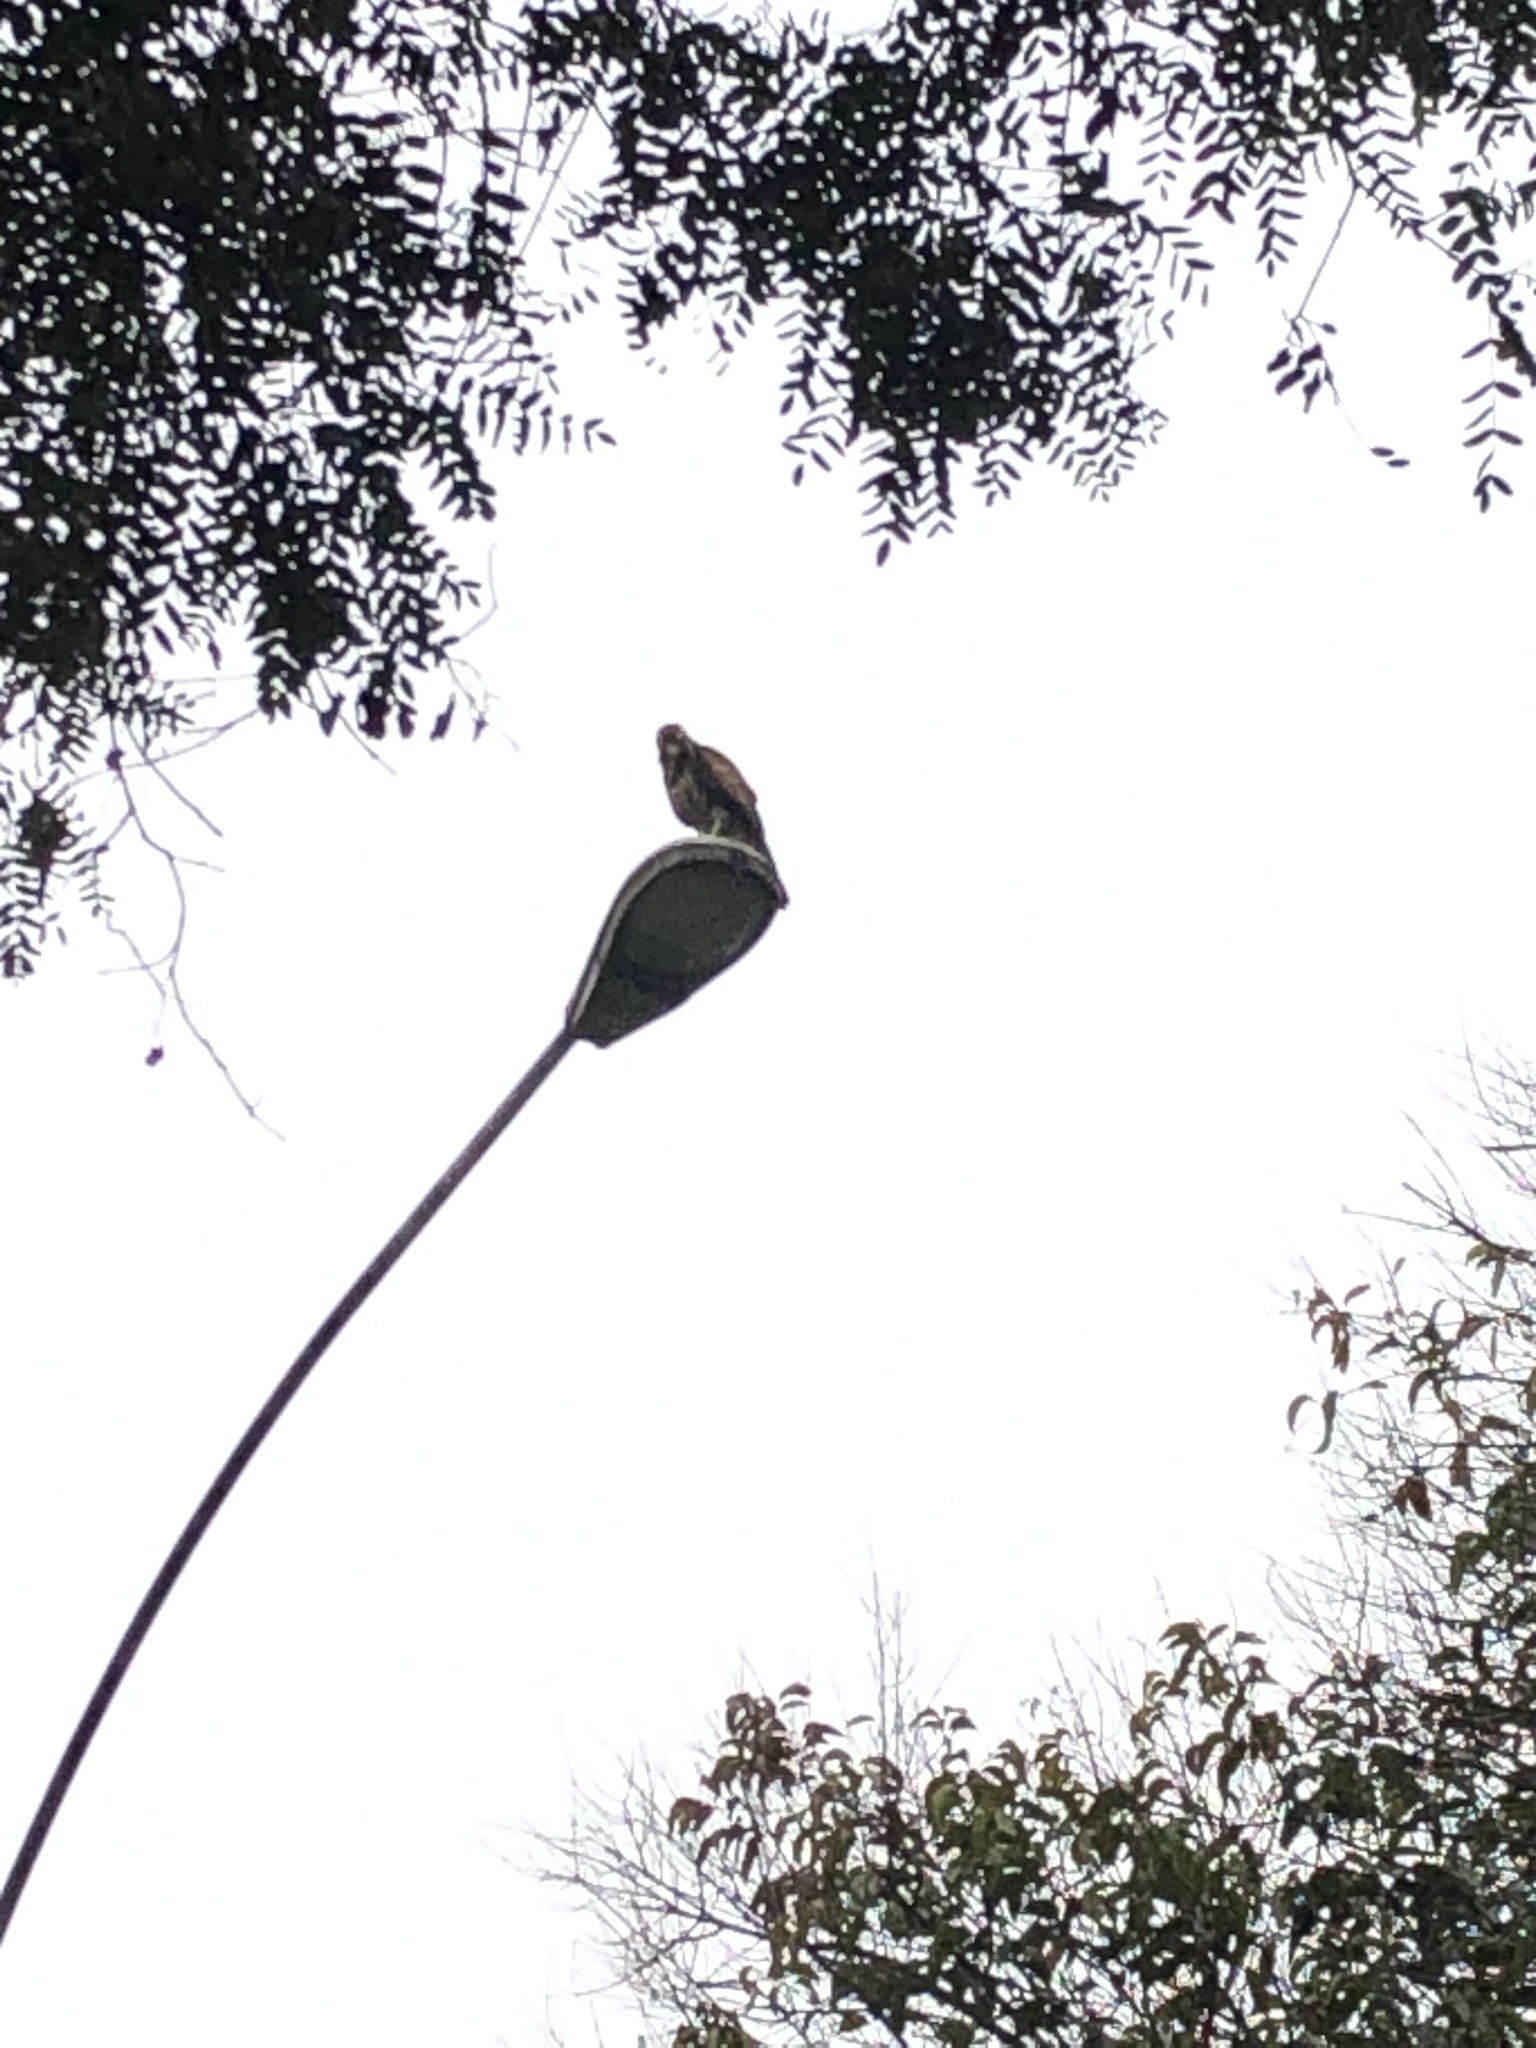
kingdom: Animalia
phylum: Chordata
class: Aves
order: Accipitriformes
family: Accipitridae
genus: Parabuteo
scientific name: Parabuteo unicinctus
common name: Harris's hawk
